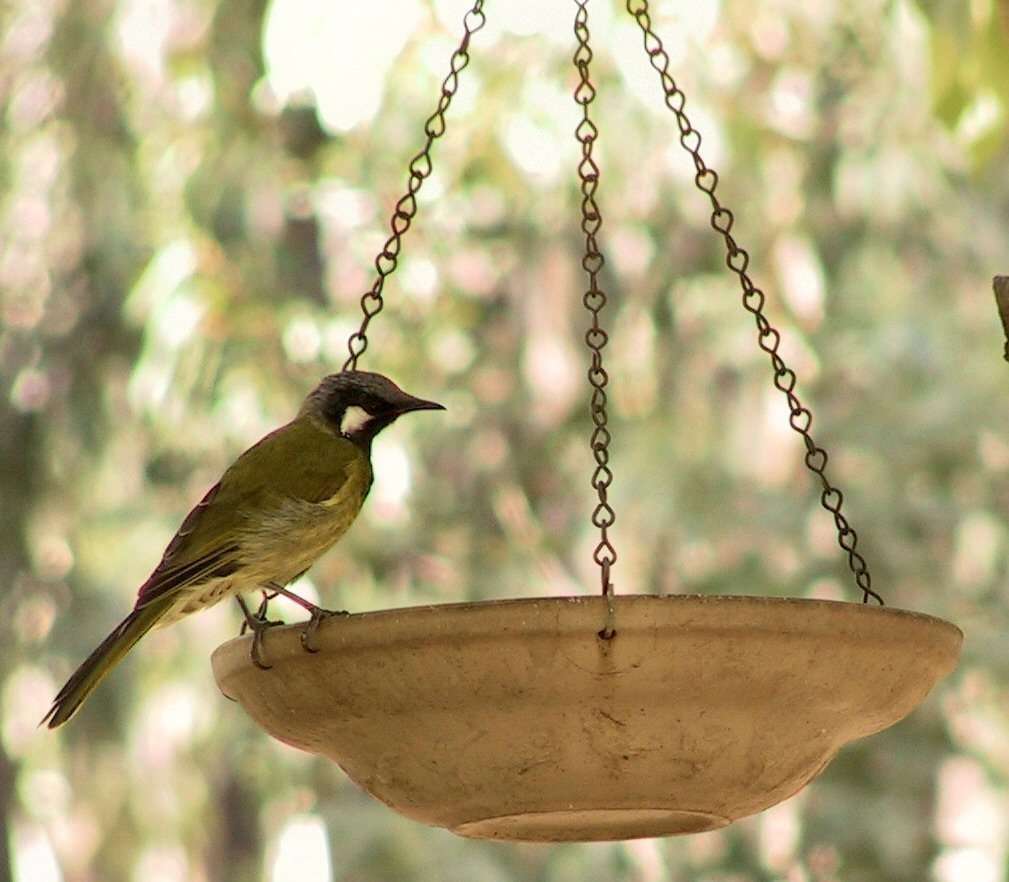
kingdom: Animalia
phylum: Chordata
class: Aves
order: Passeriformes
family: Meliphagidae
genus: Nesoptilotis
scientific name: Nesoptilotis leucotis
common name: White-eared honeyeater
